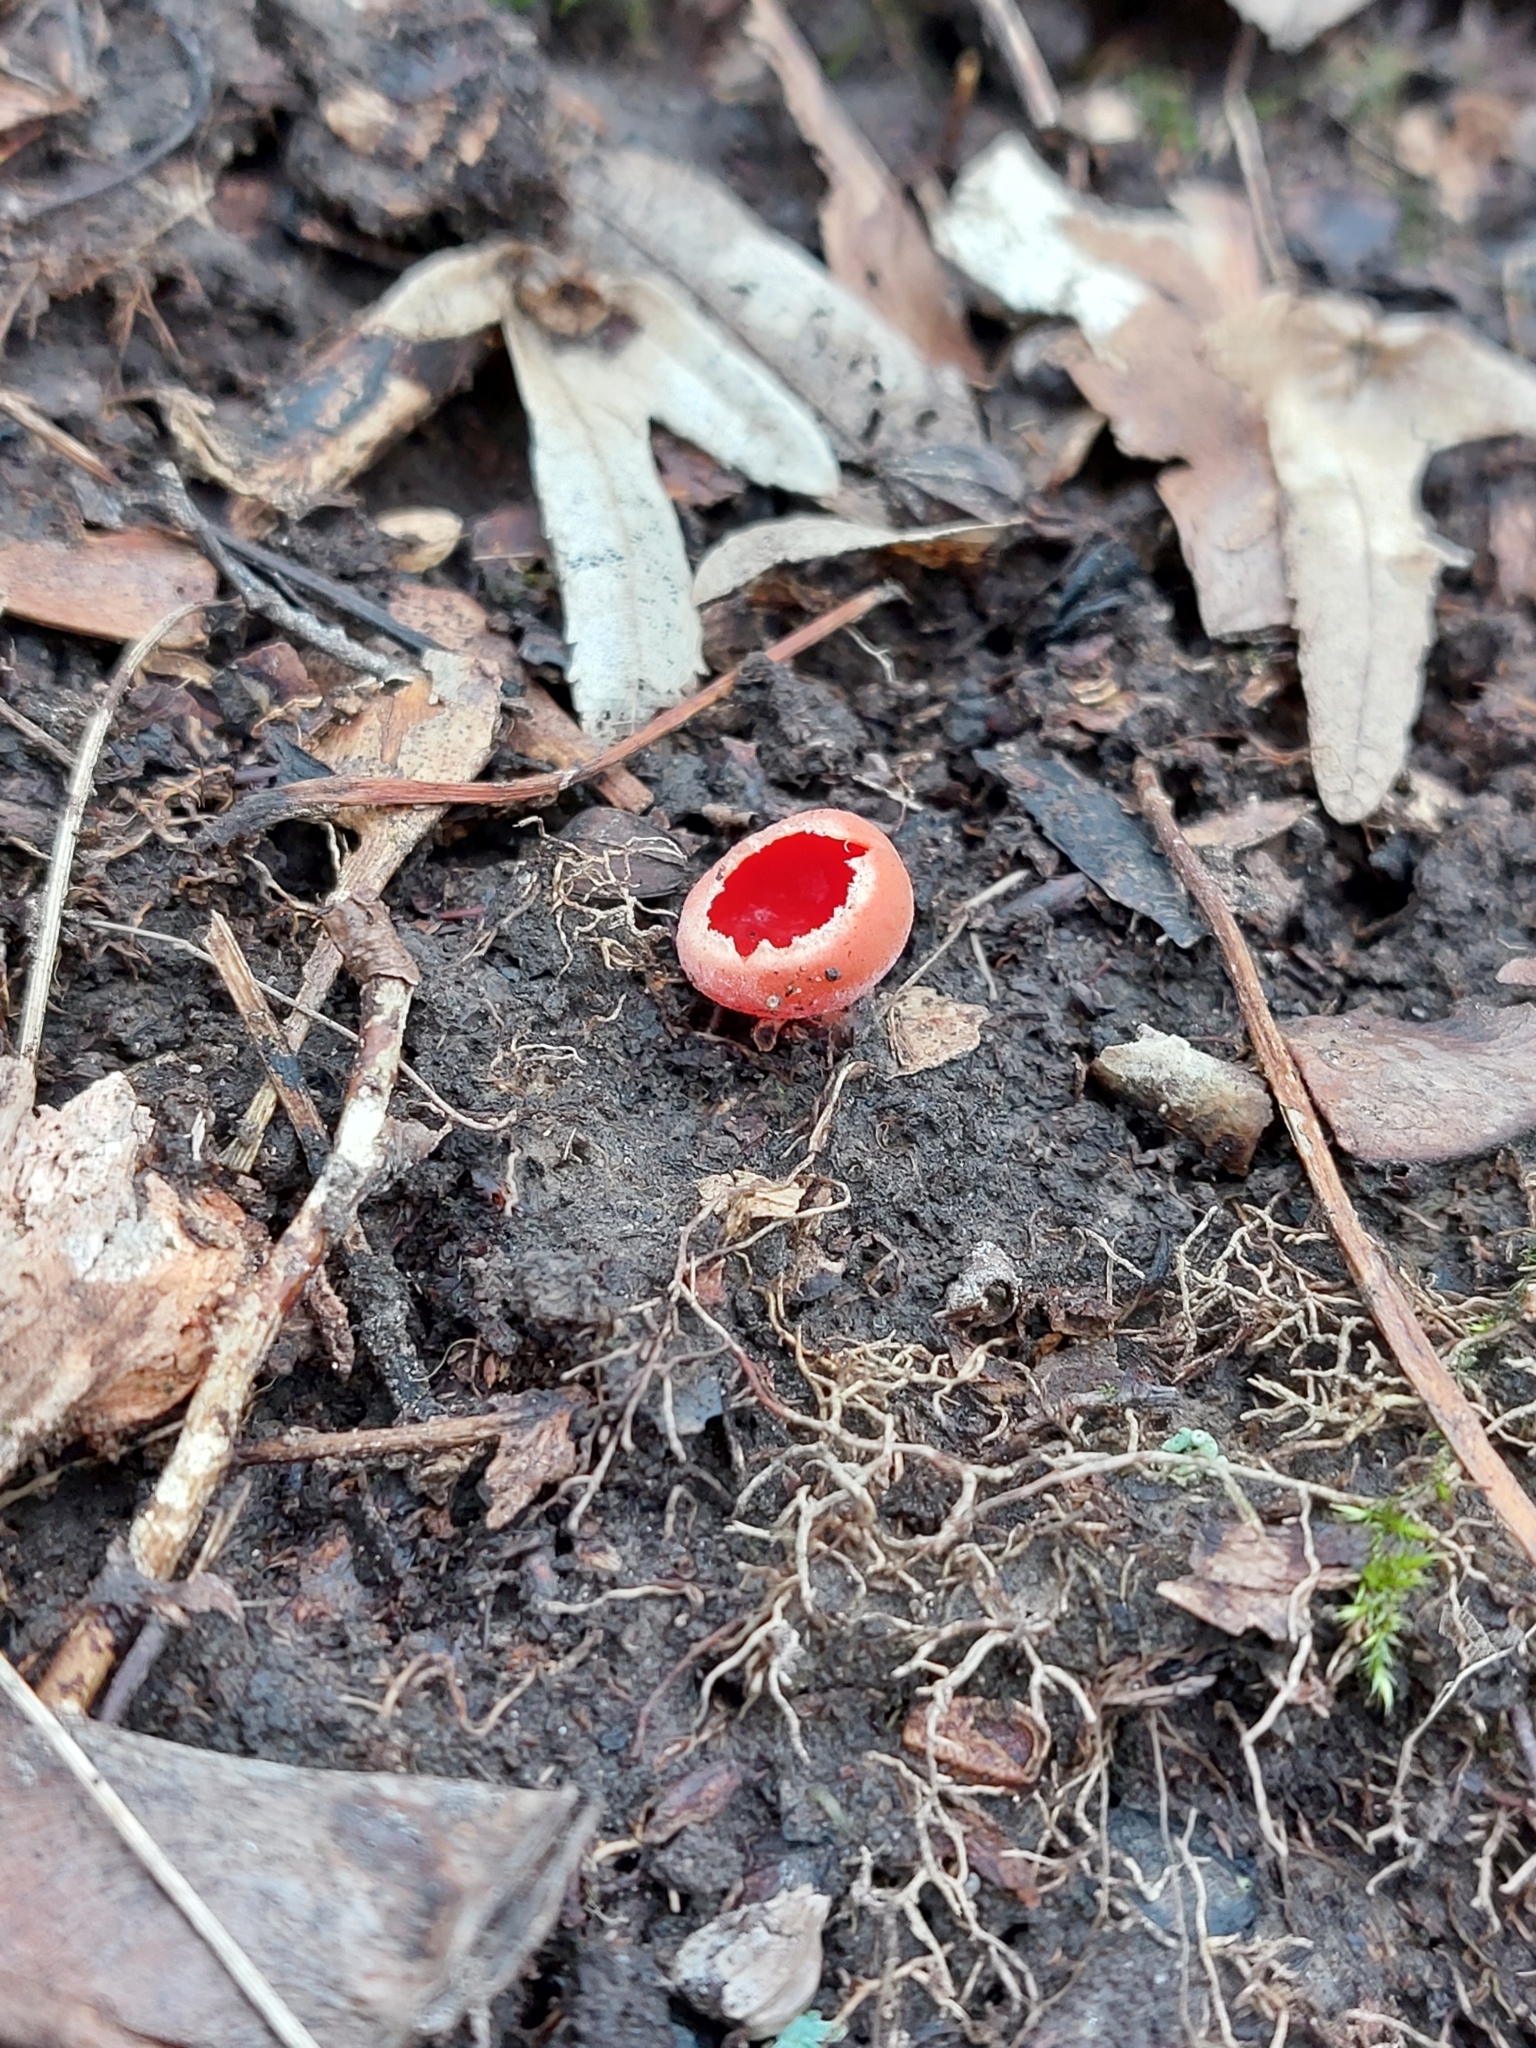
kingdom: Fungi
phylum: Ascomycota
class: Pezizomycetes
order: Pezizales
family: Sarcoscyphaceae
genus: Sarcoscypha
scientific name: Sarcoscypha
